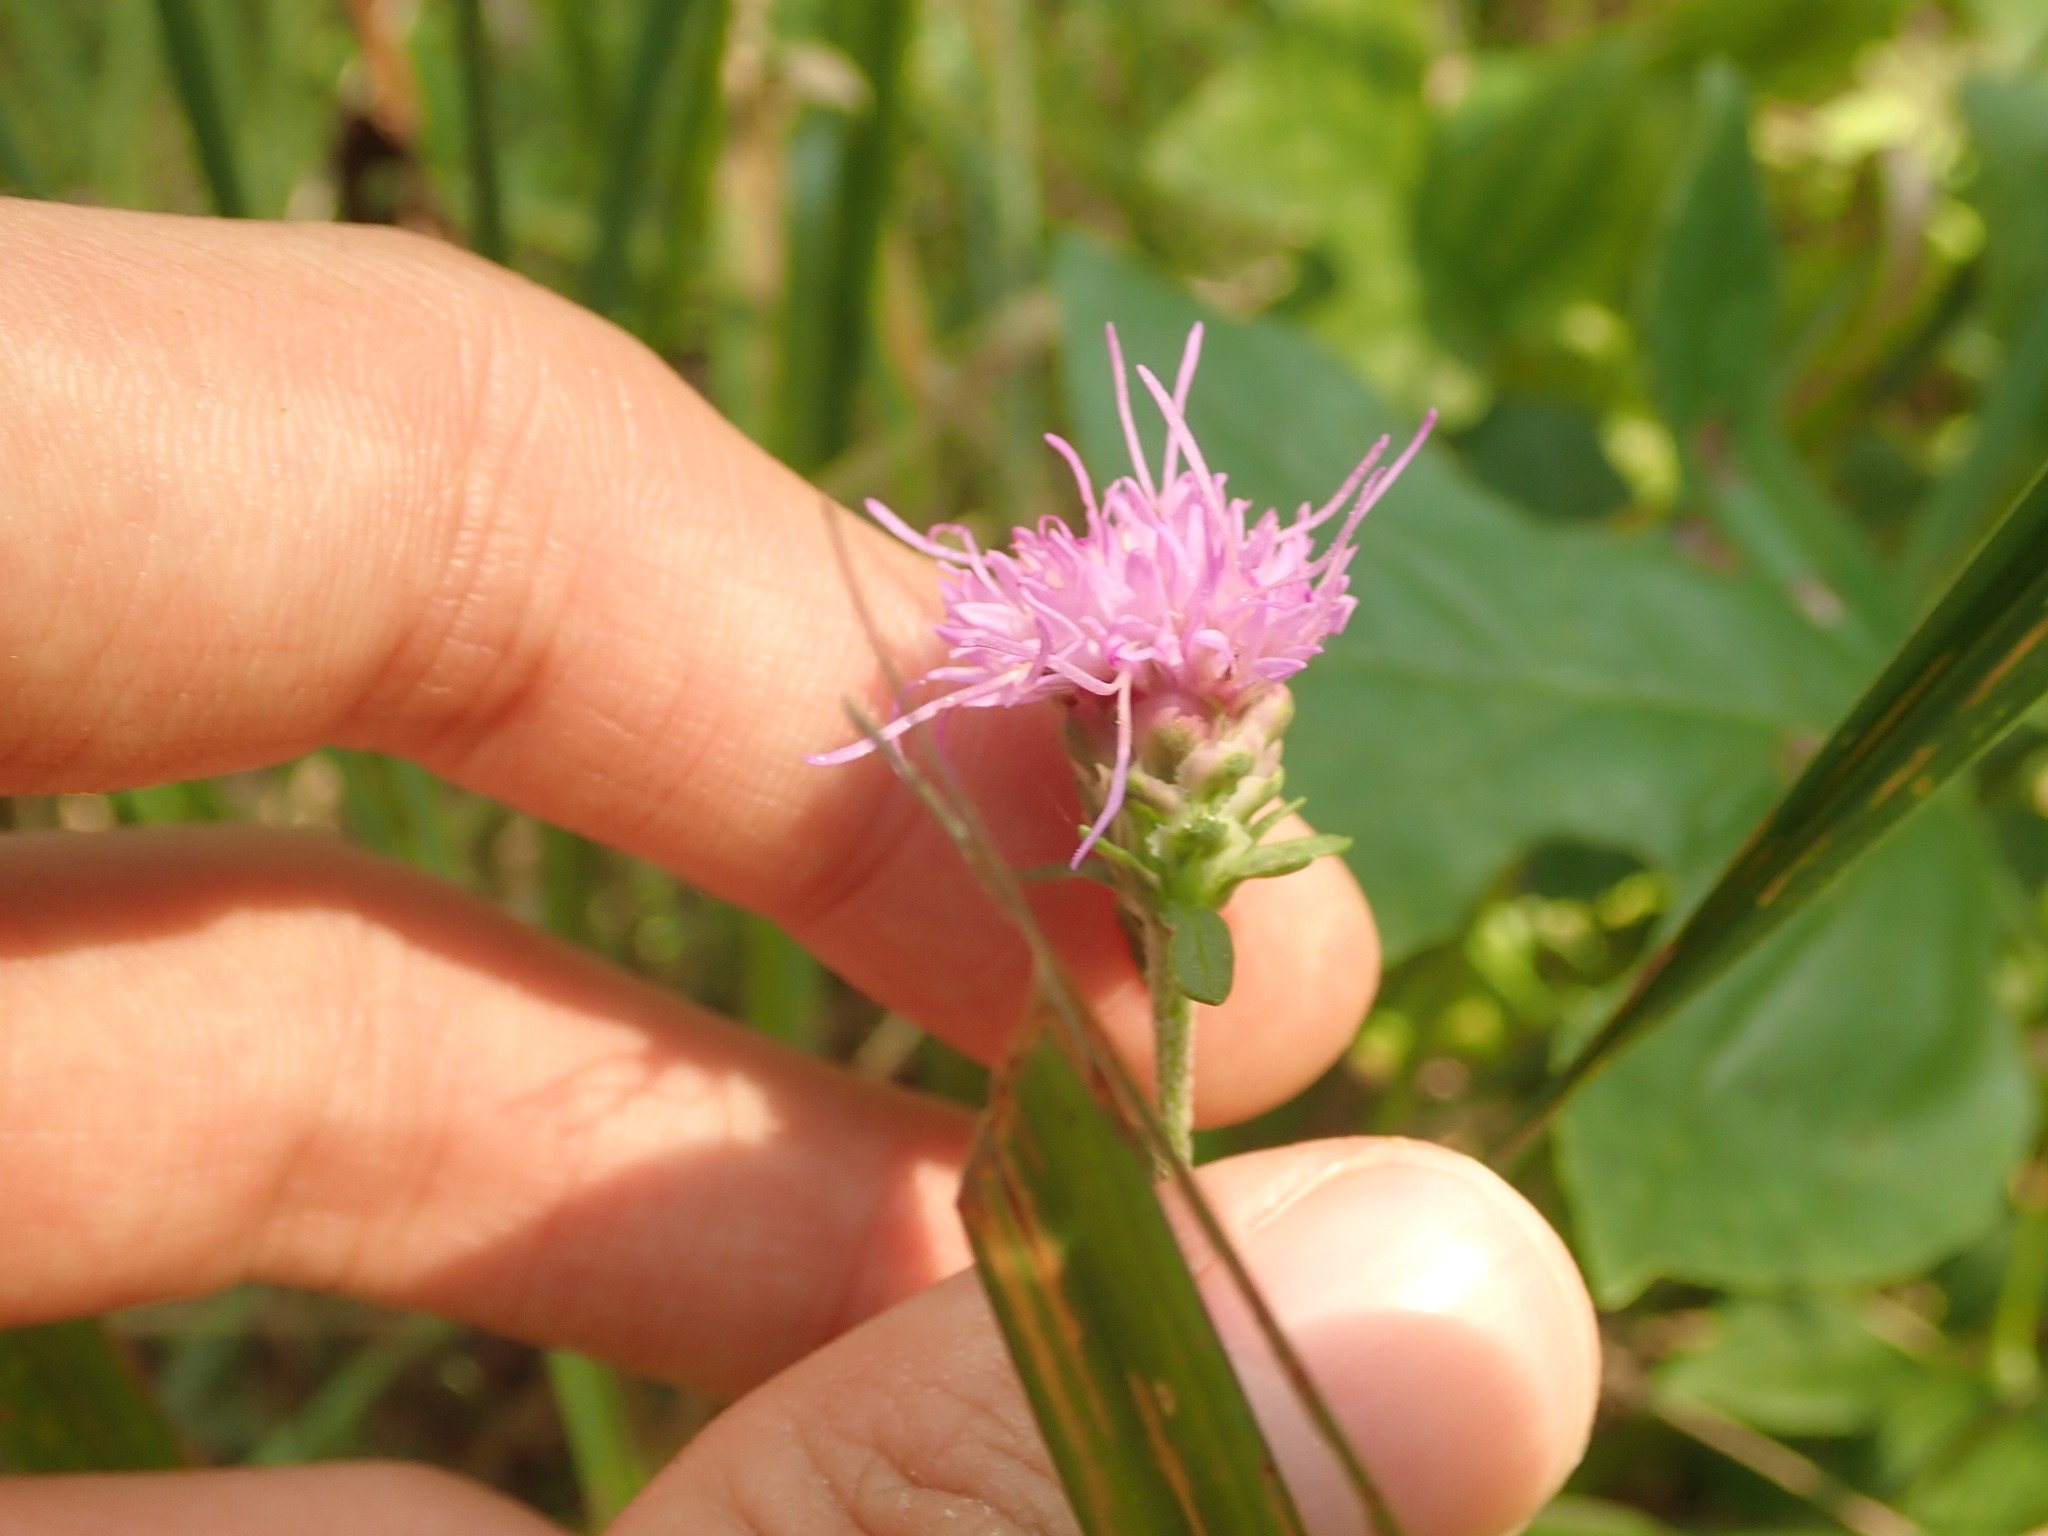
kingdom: Plantae
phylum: Tracheophyta
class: Magnoliopsida
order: Asterales
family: Asteraceae
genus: Liatris
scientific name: Liatris aspera
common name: Lacerate blazing-star
